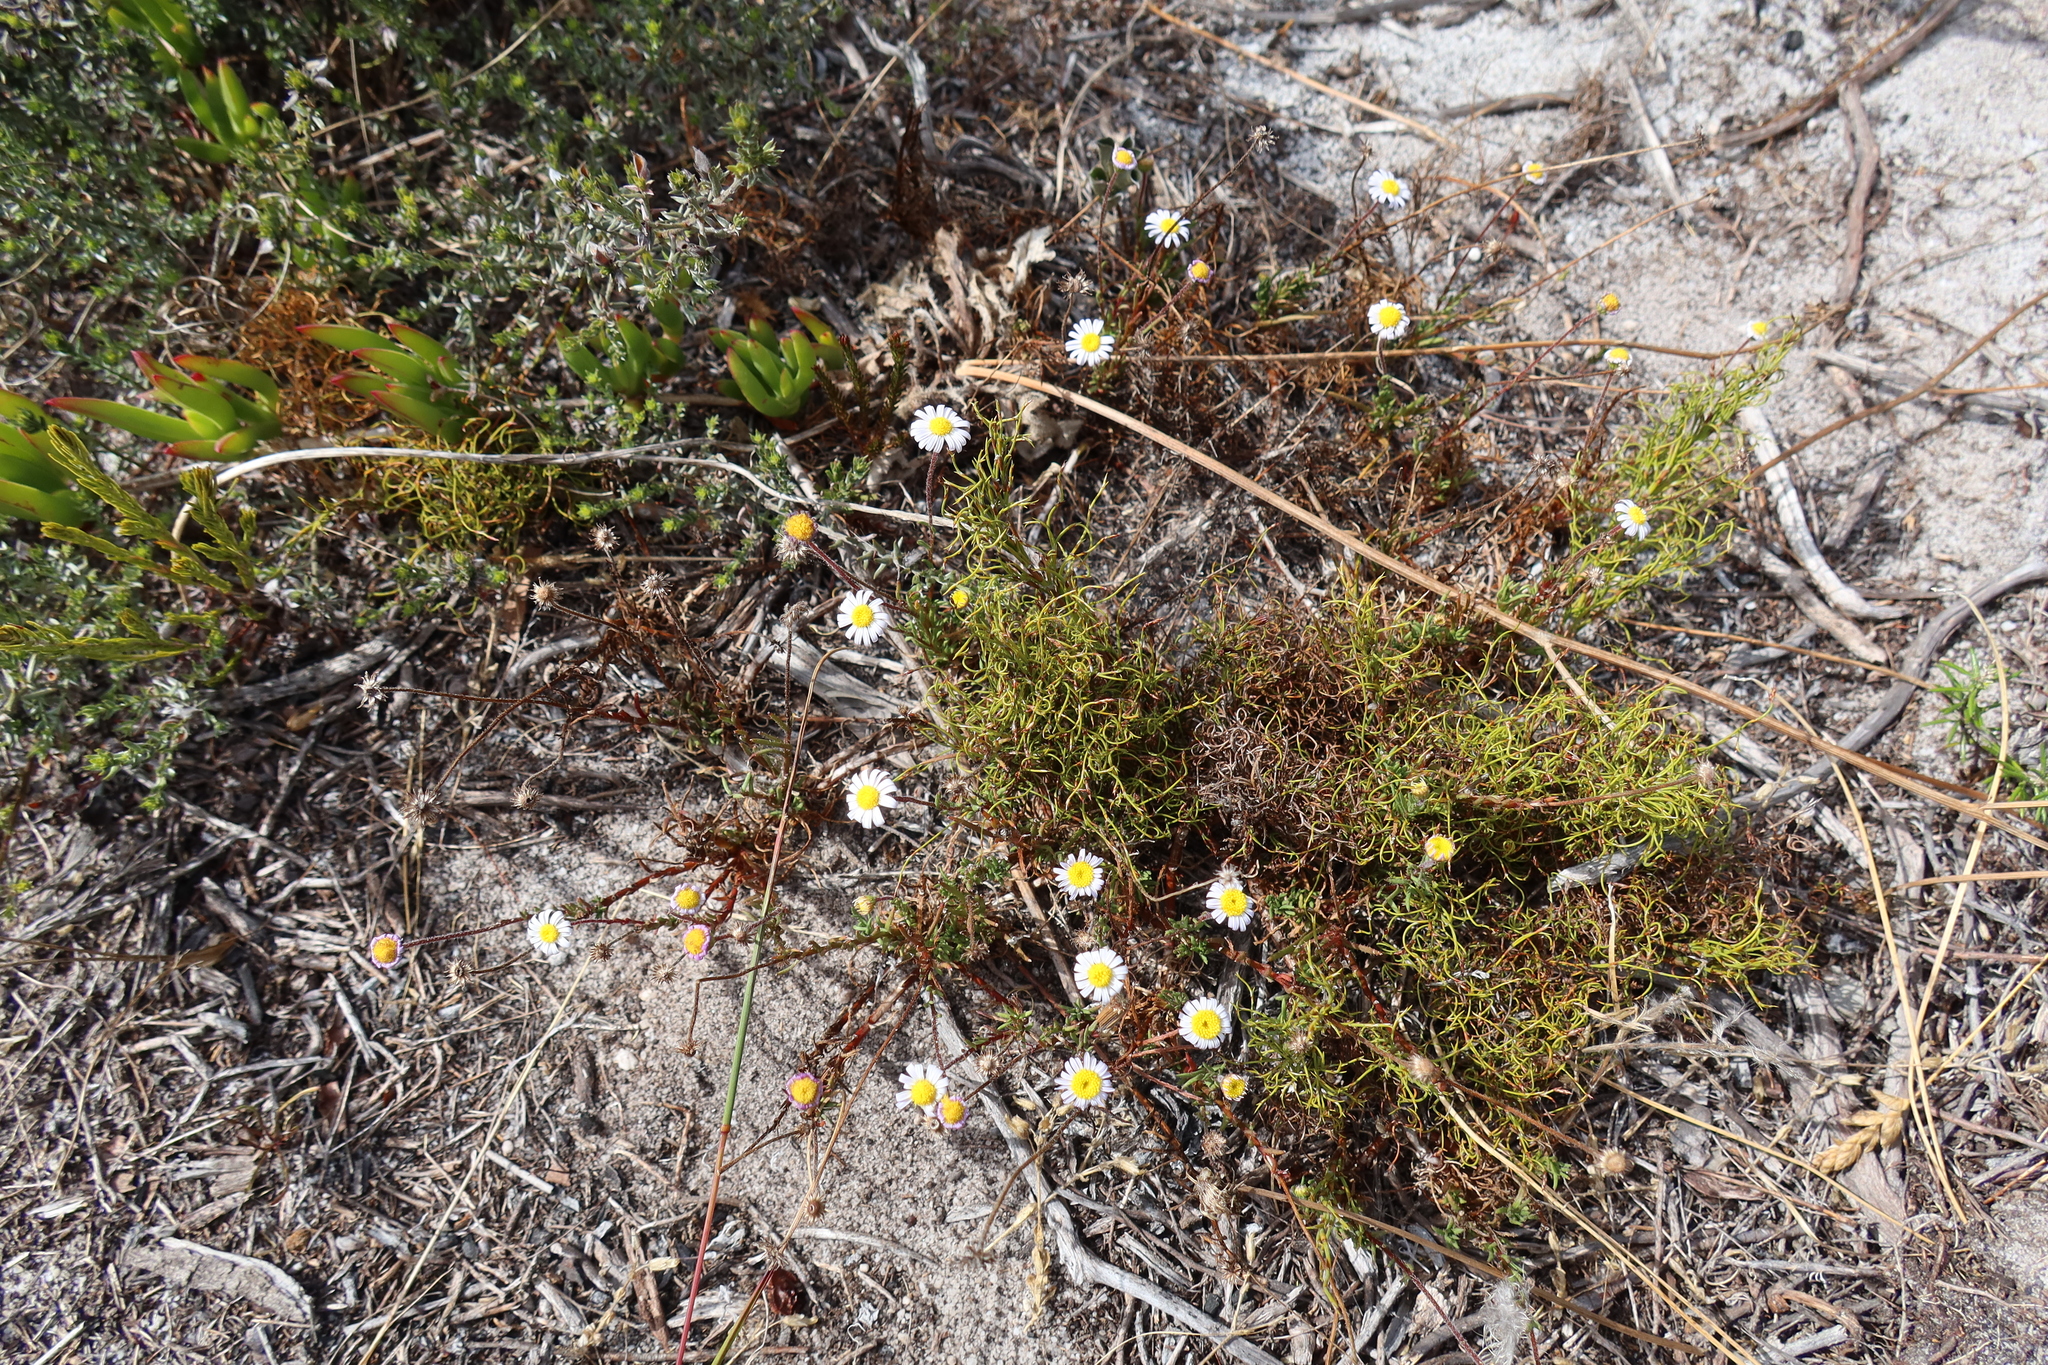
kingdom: Plantae
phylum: Tracheophyta
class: Magnoliopsida
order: Asterales
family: Asteraceae
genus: Felicia
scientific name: Felicia tenella
